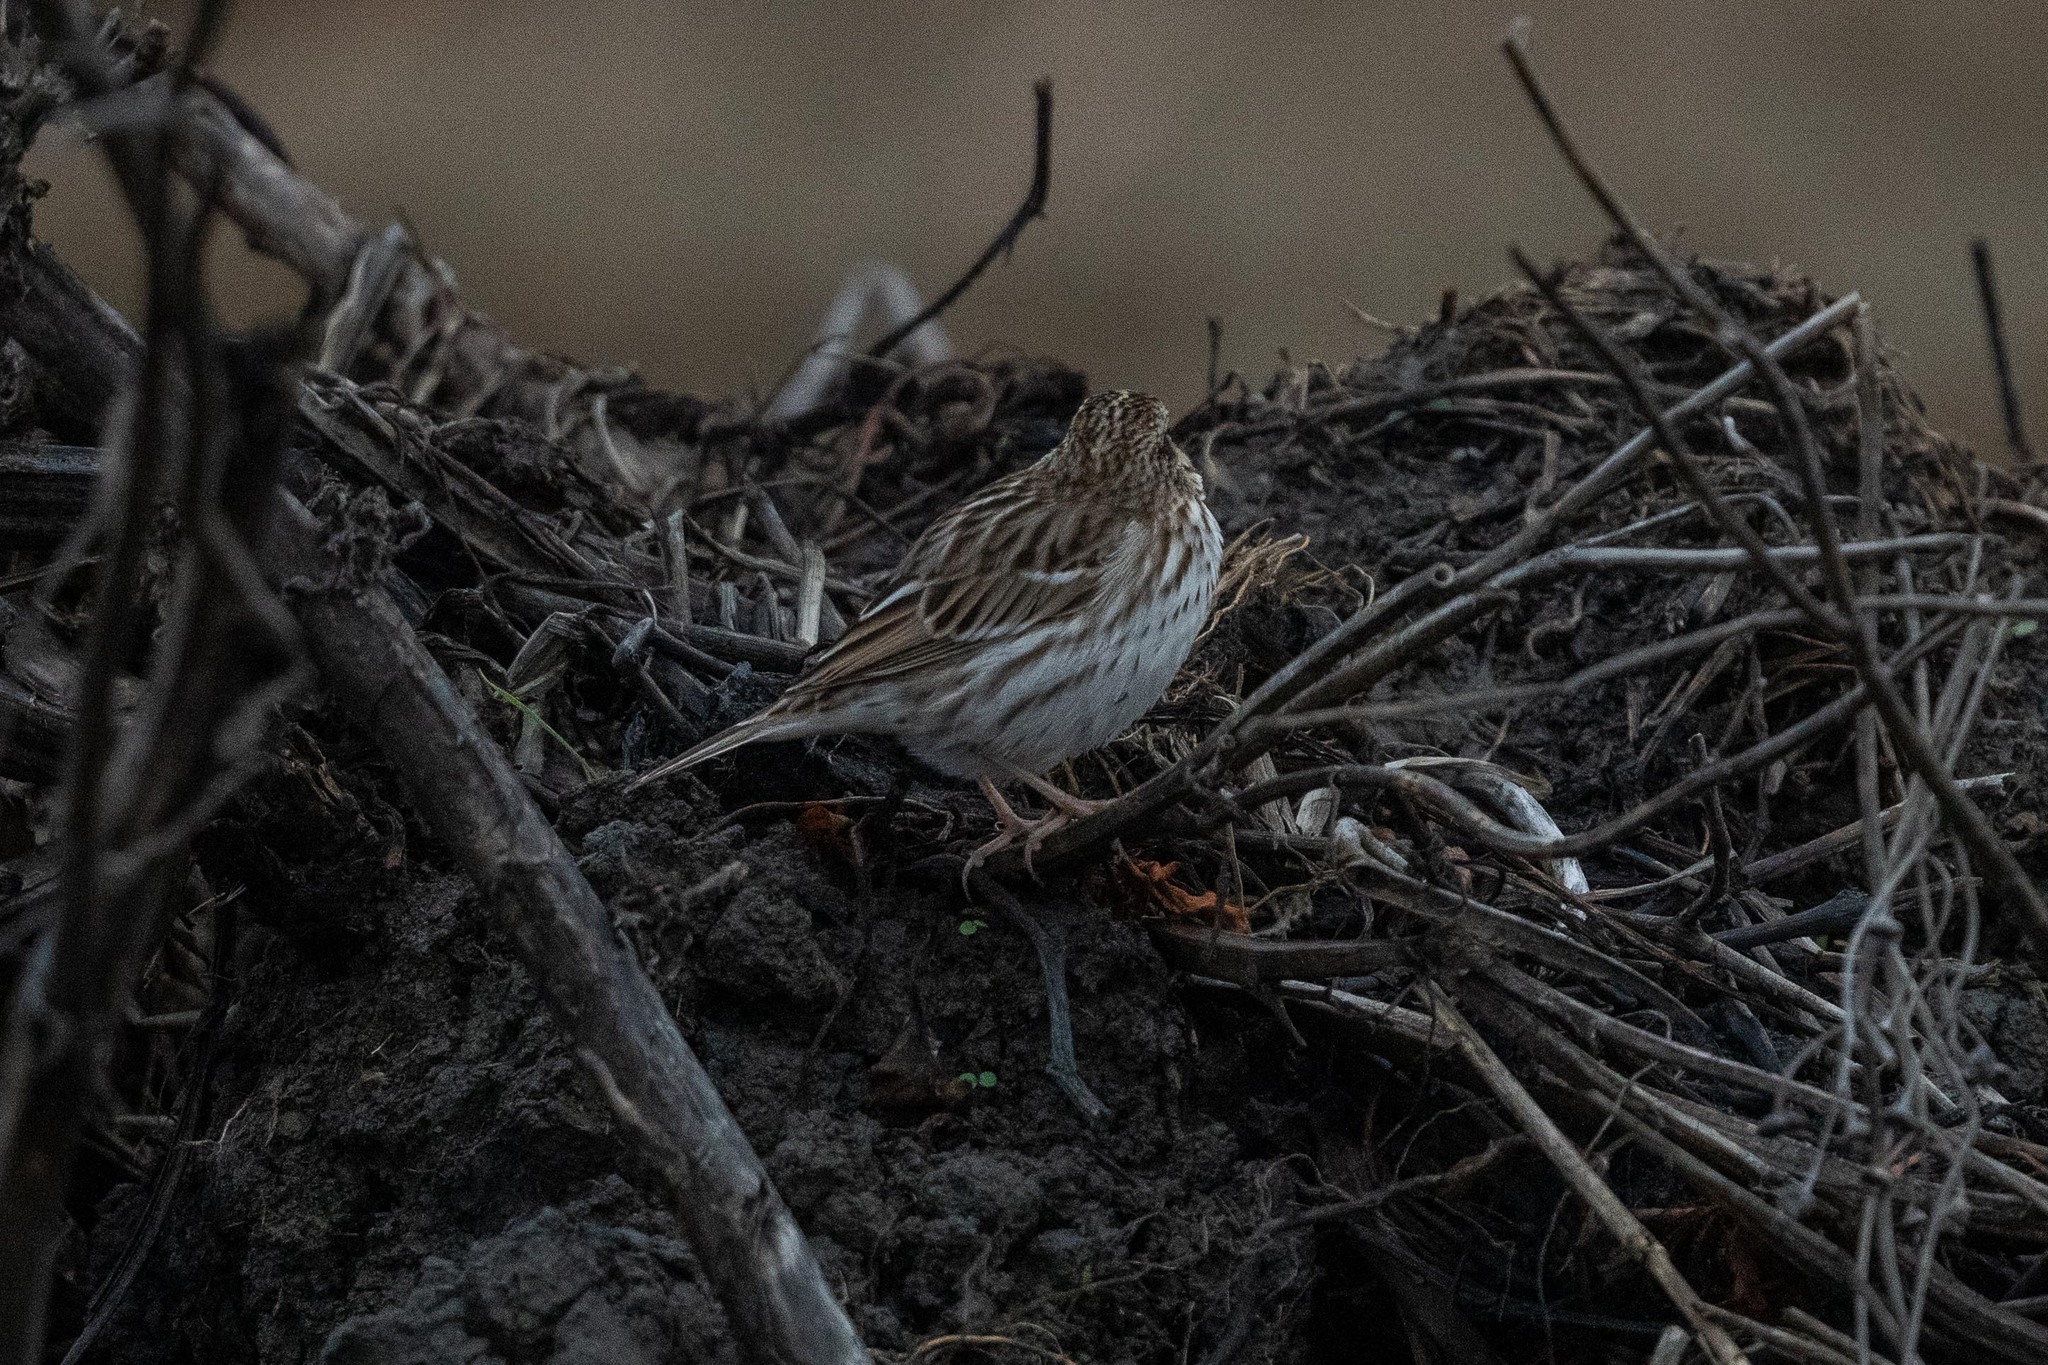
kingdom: Animalia
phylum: Chordata
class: Aves
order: Passeriformes
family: Passerellidae
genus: Passerculus
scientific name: Passerculus sandwichensis
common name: Savannah sparrow
